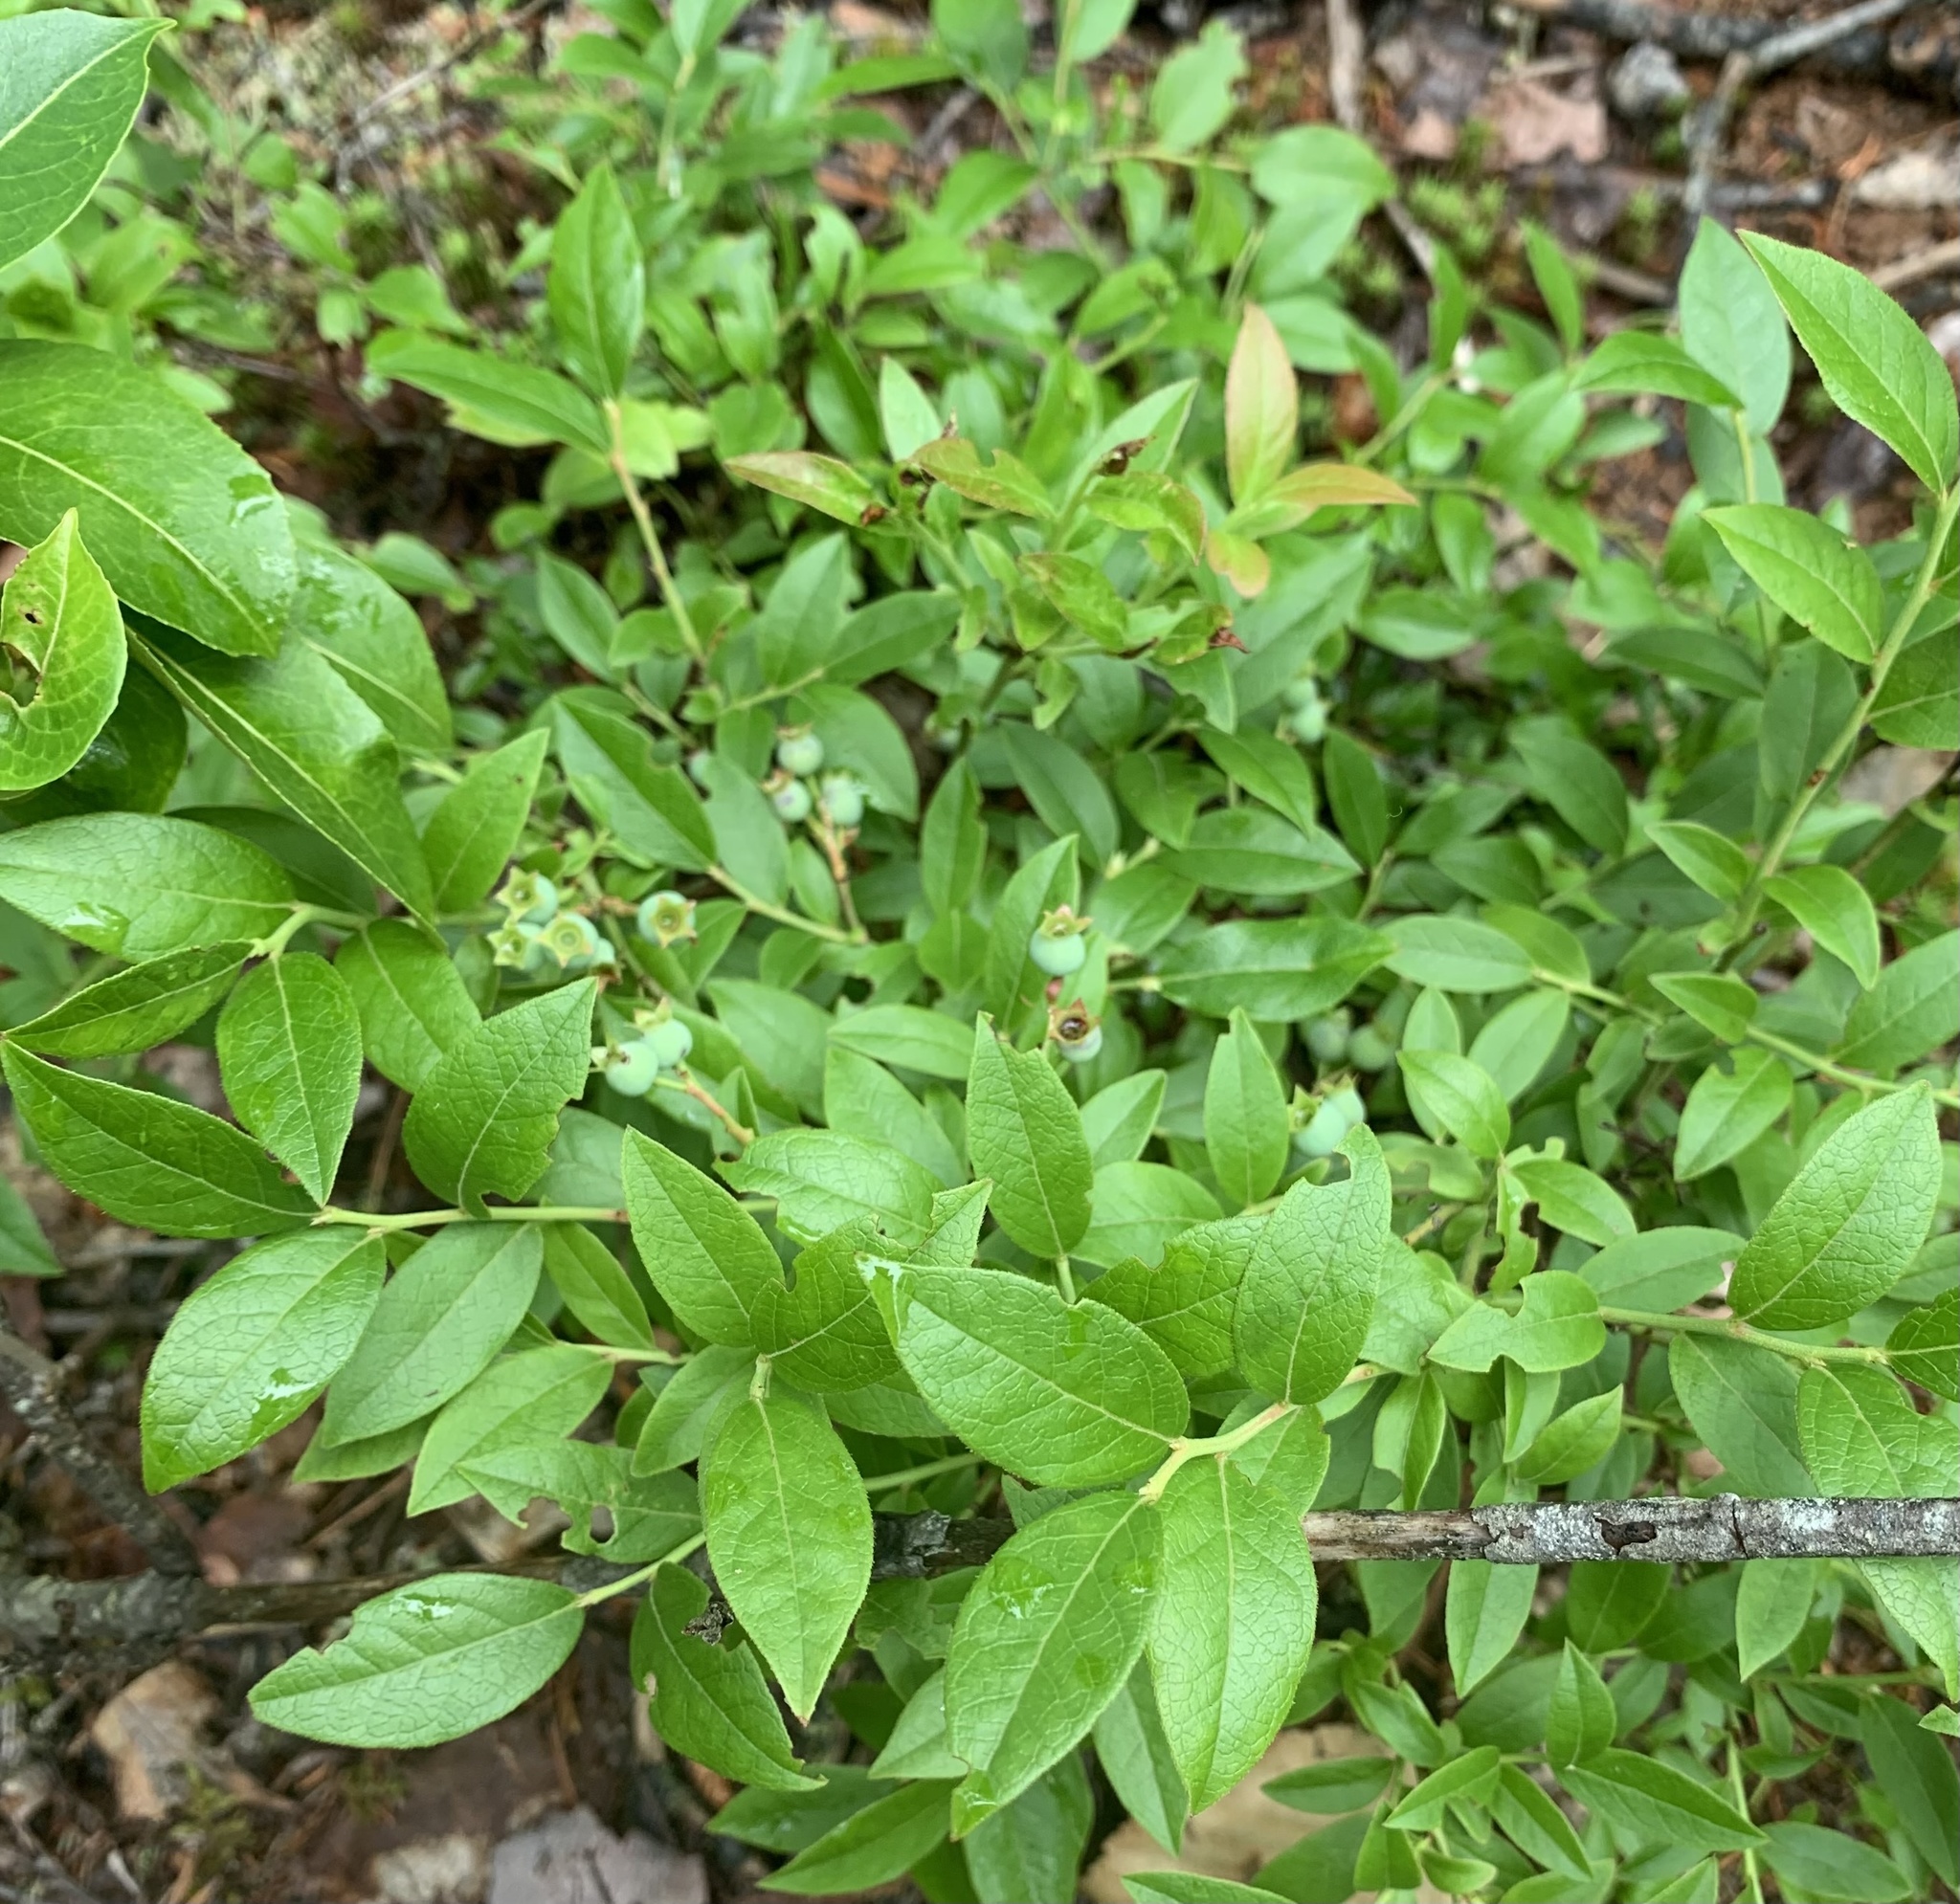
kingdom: Plantae
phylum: Tracheophyta
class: Magnoliopsida
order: Ericales
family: Ericaceae
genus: Vaccinium
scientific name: Vaccinium angustifolium
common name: Early lowbush blueberry
